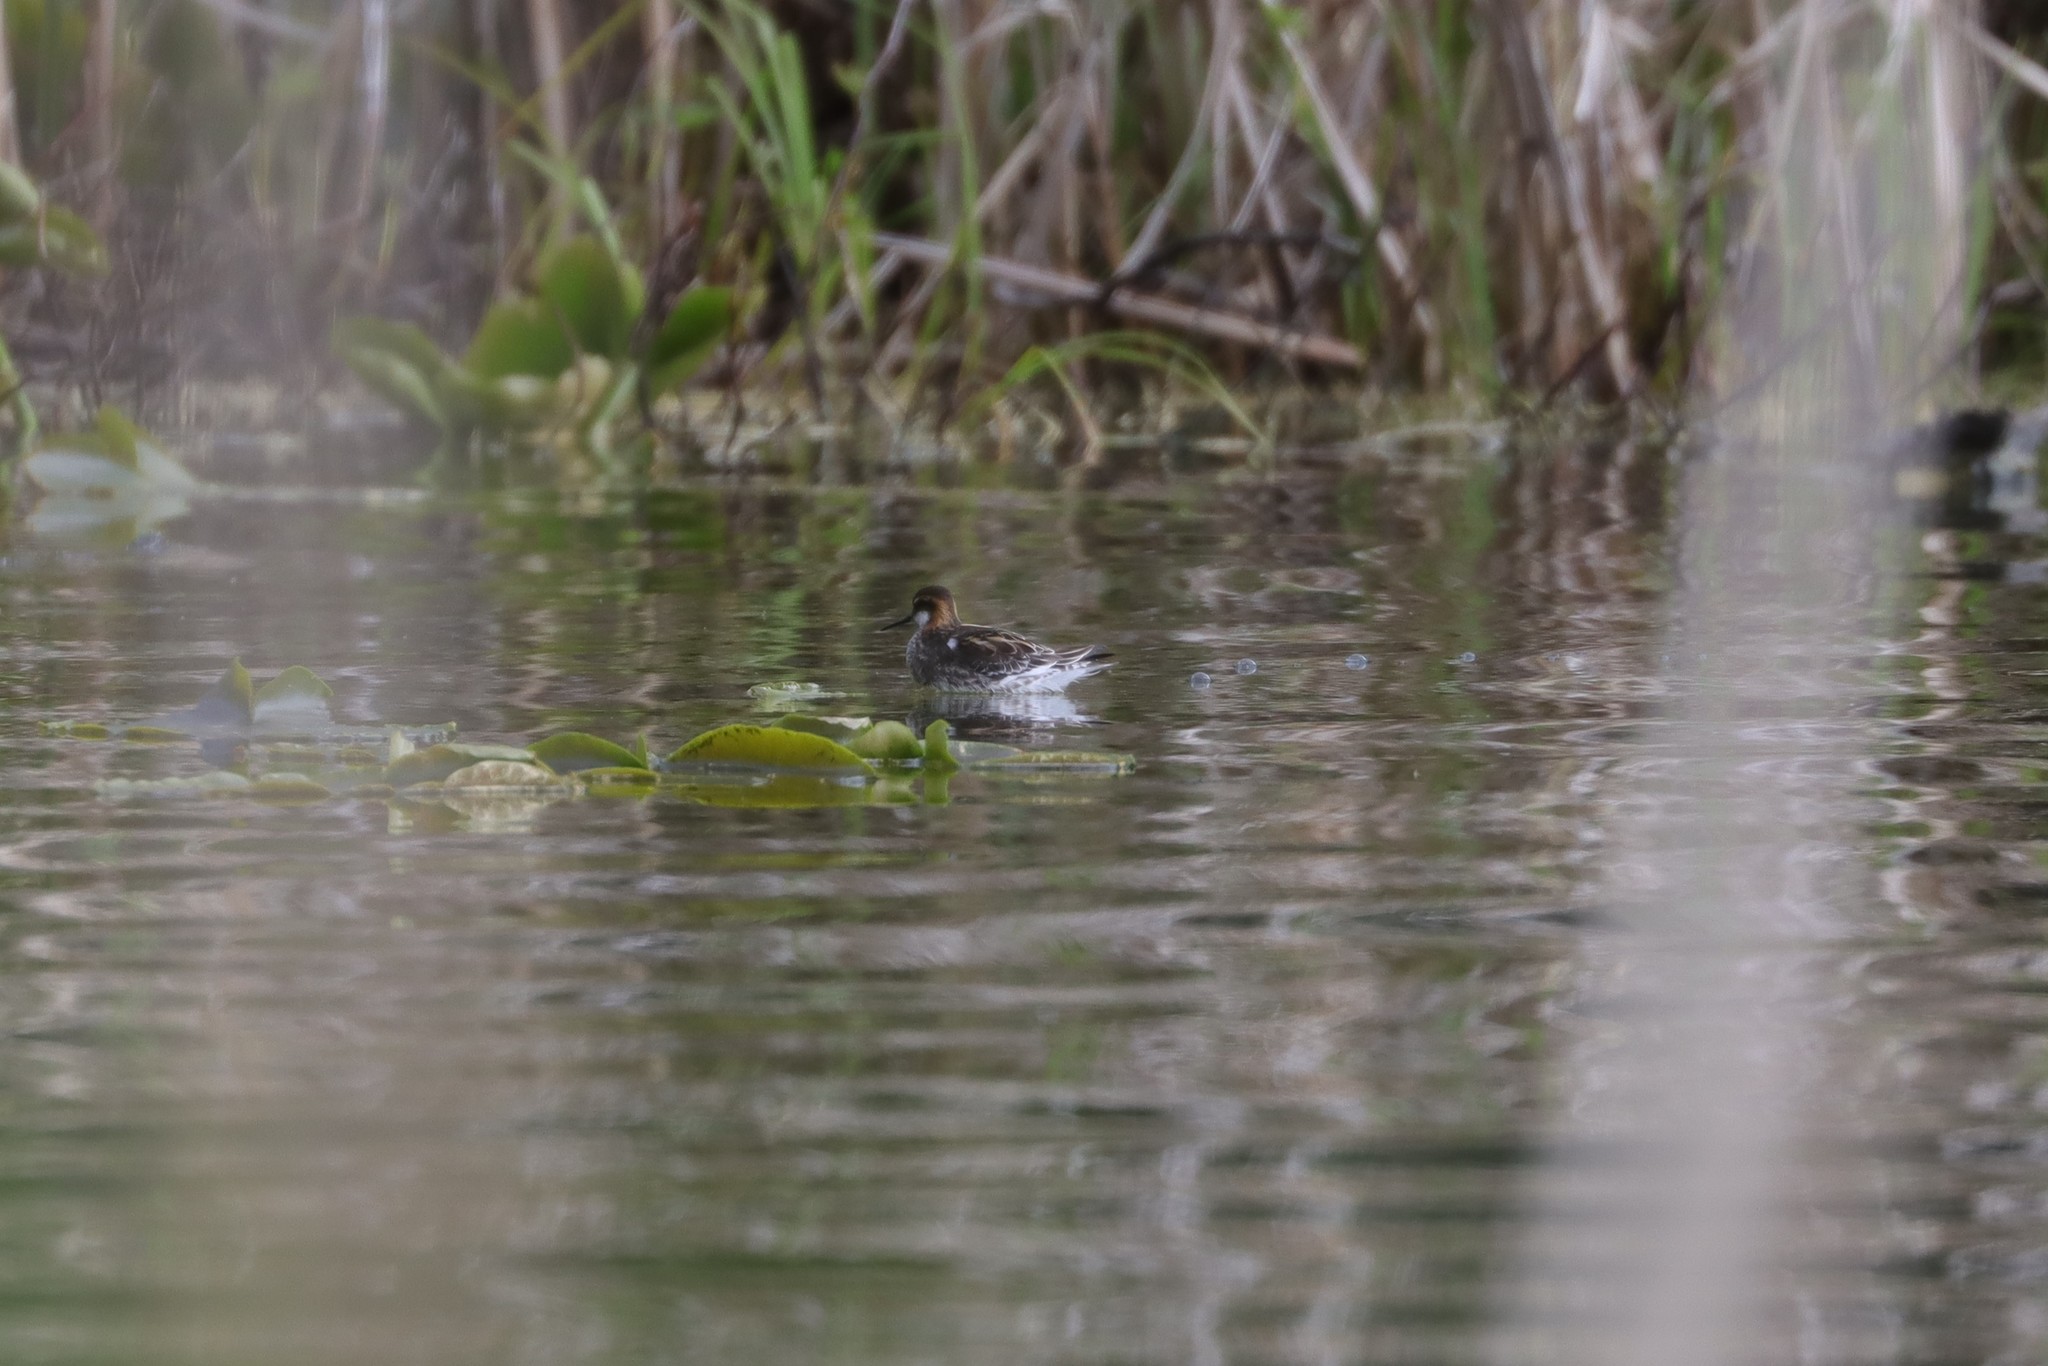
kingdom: Animalia
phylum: Chordata
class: Aves
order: Charadriiformes
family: Scolopacidae
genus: Phalaropus
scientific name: Phalaropus lobatus
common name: Red-necked phalarope
